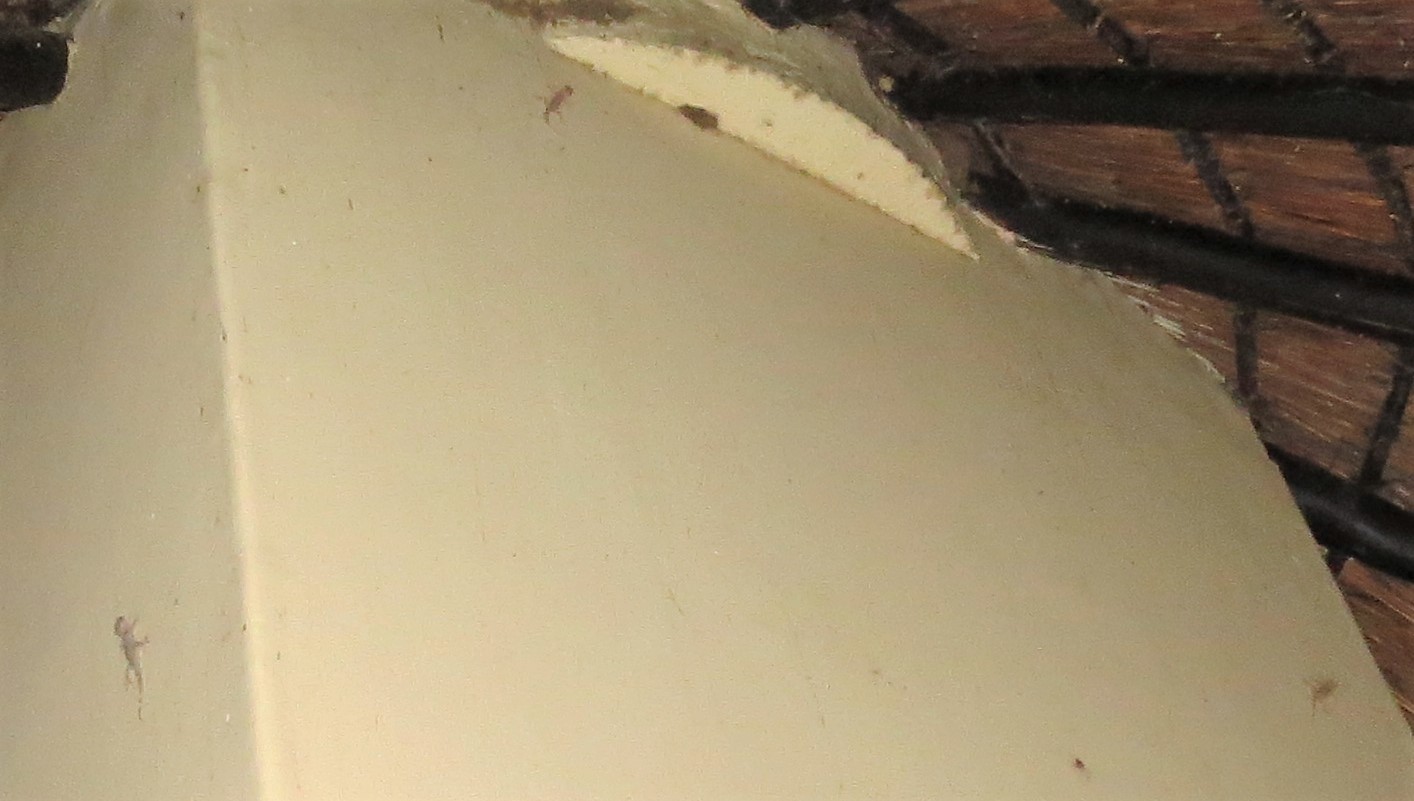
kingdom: Animalia
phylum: Chordata
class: Squamata
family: Gekkonidae
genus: Hemidactylus
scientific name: Hemidactylus mabouia
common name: House gecko
